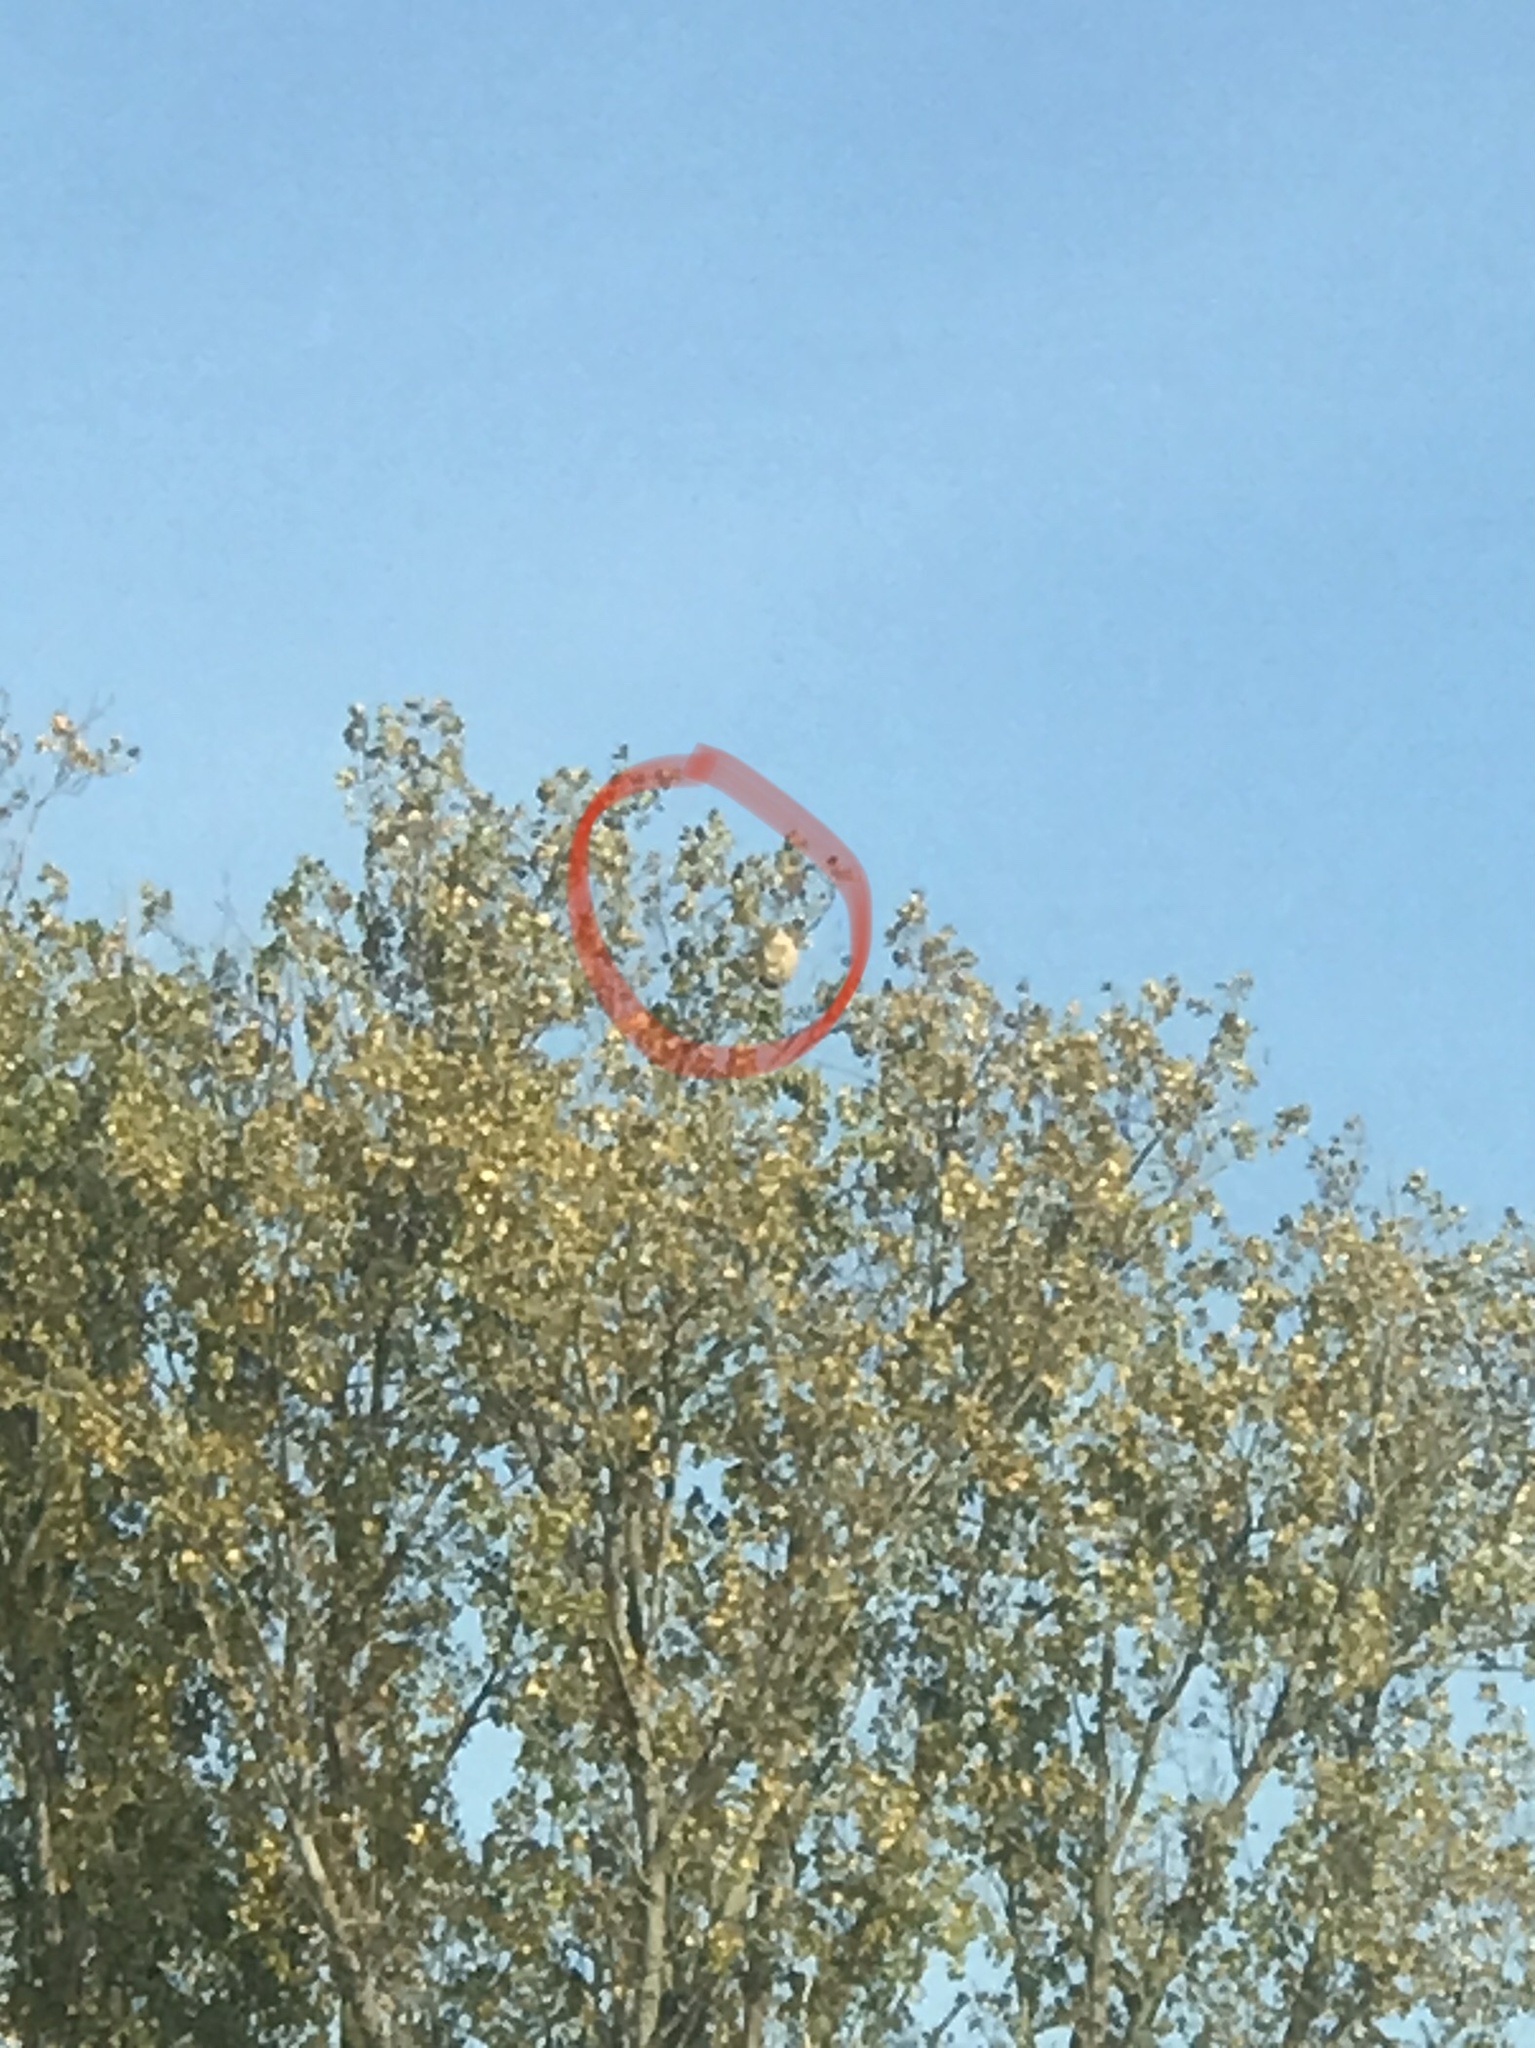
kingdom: Animalia
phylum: Arthropoda
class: Insecta
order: Hymenoptera
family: Vespidae
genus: Vespa
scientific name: Vespa velutina
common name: Asian hornet
